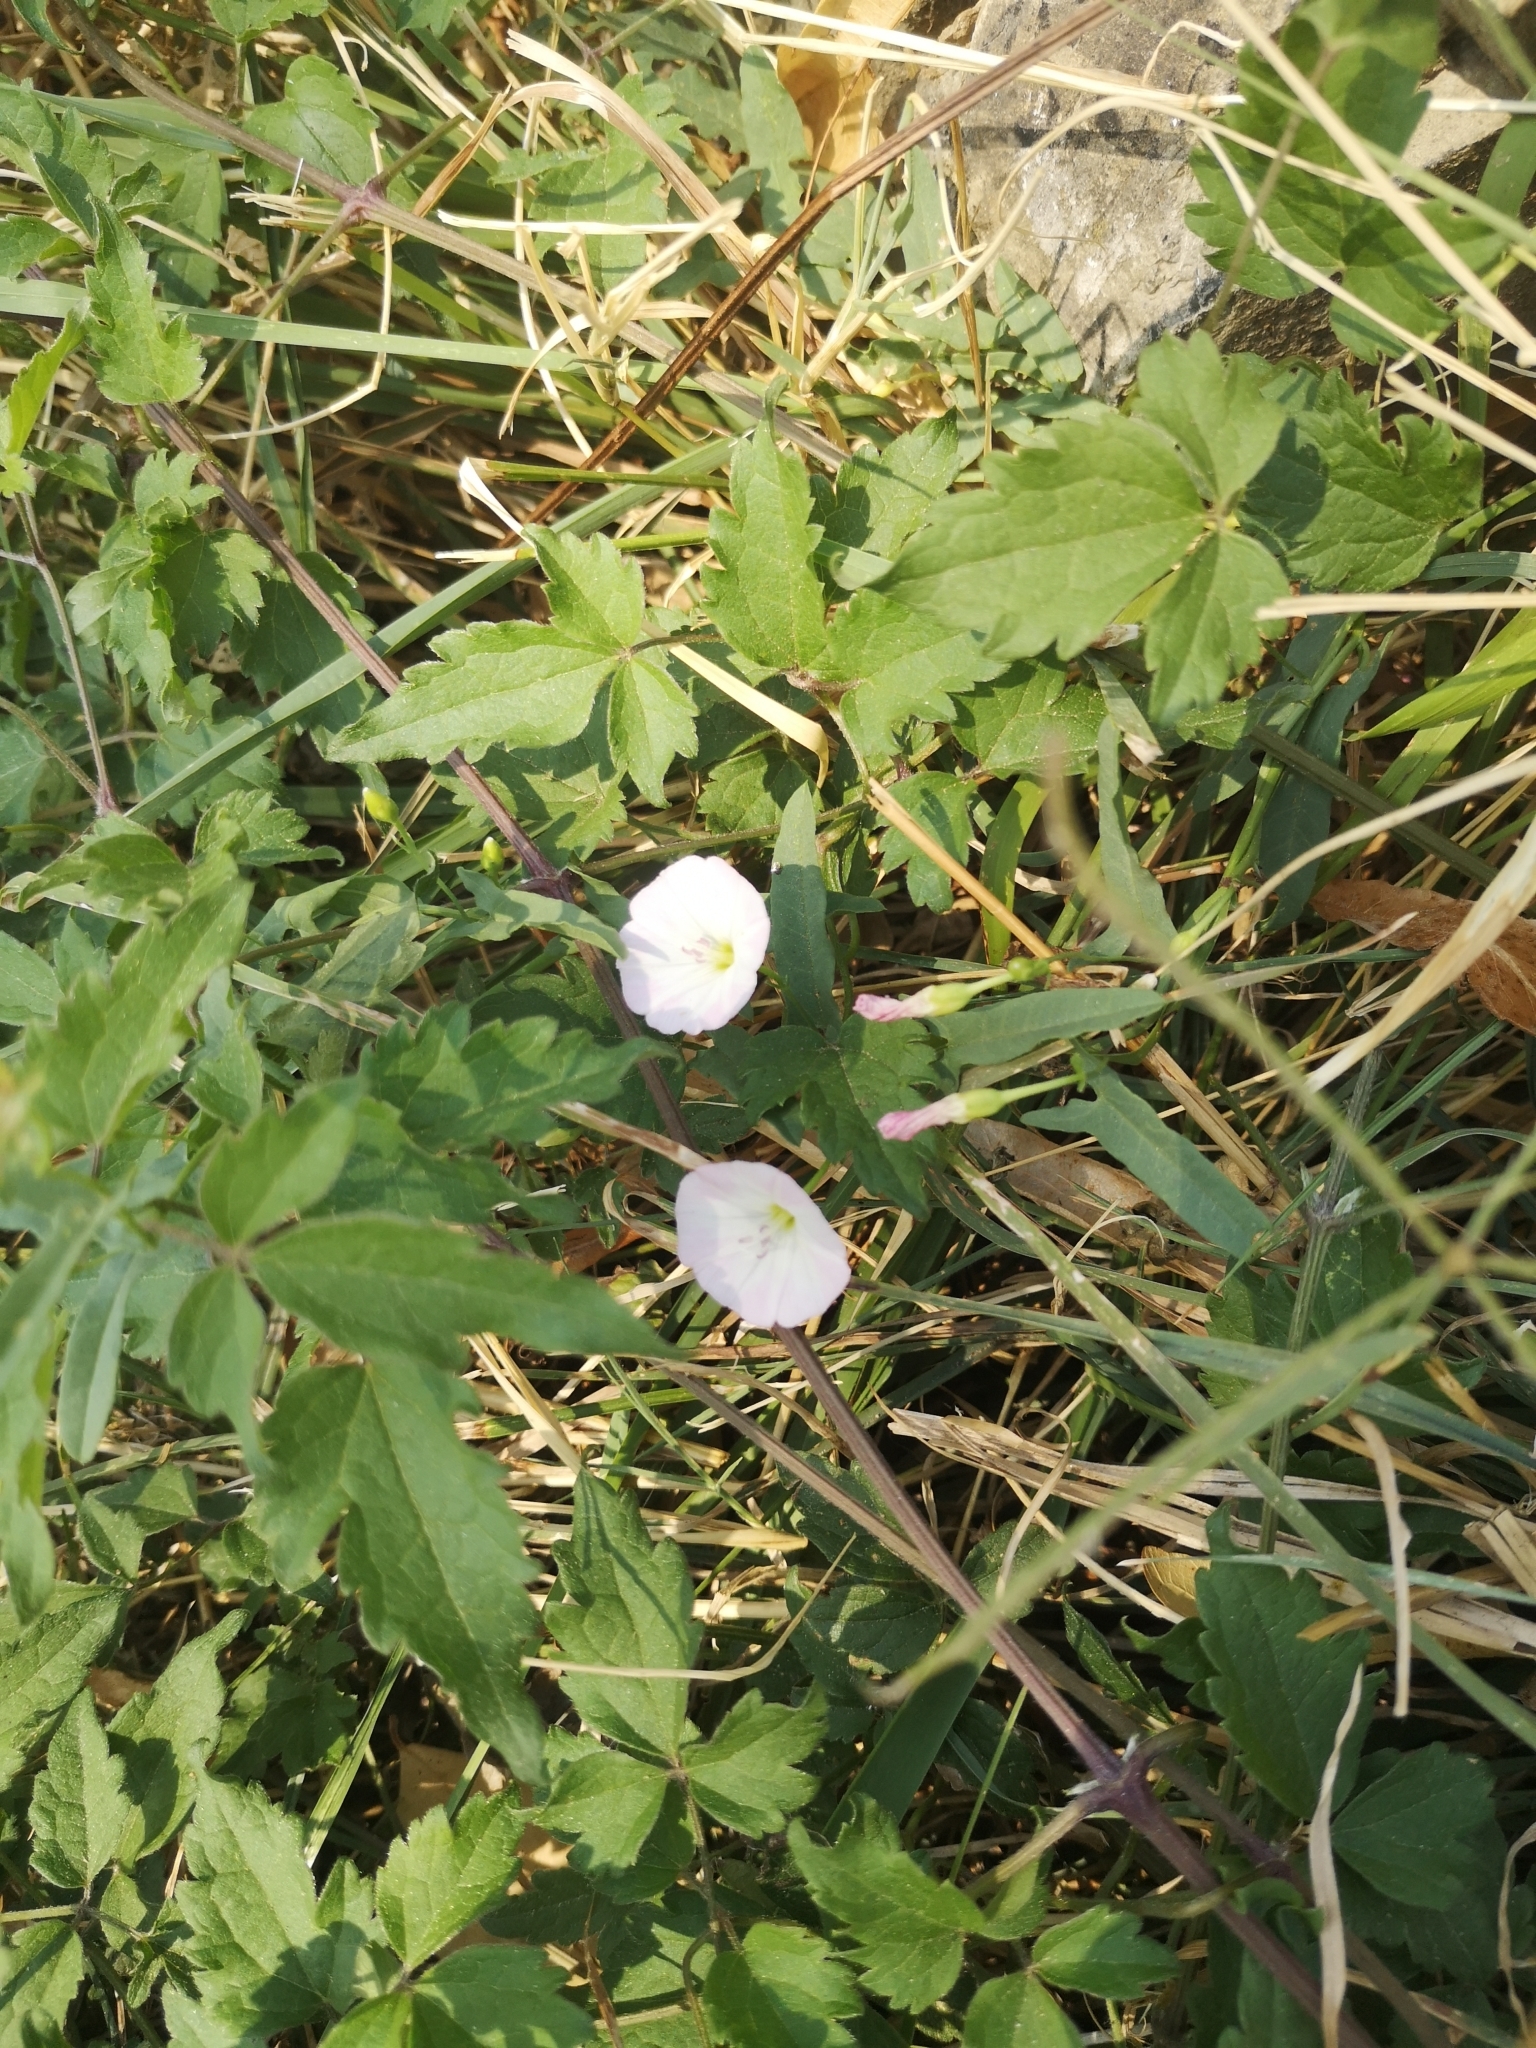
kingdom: Plantae
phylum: Tracheophyta
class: Magnoliopsida
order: Solanales
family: Convolvulaceae
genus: Convolvulus
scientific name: Convolvulus arvensis
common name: Field bindweed
